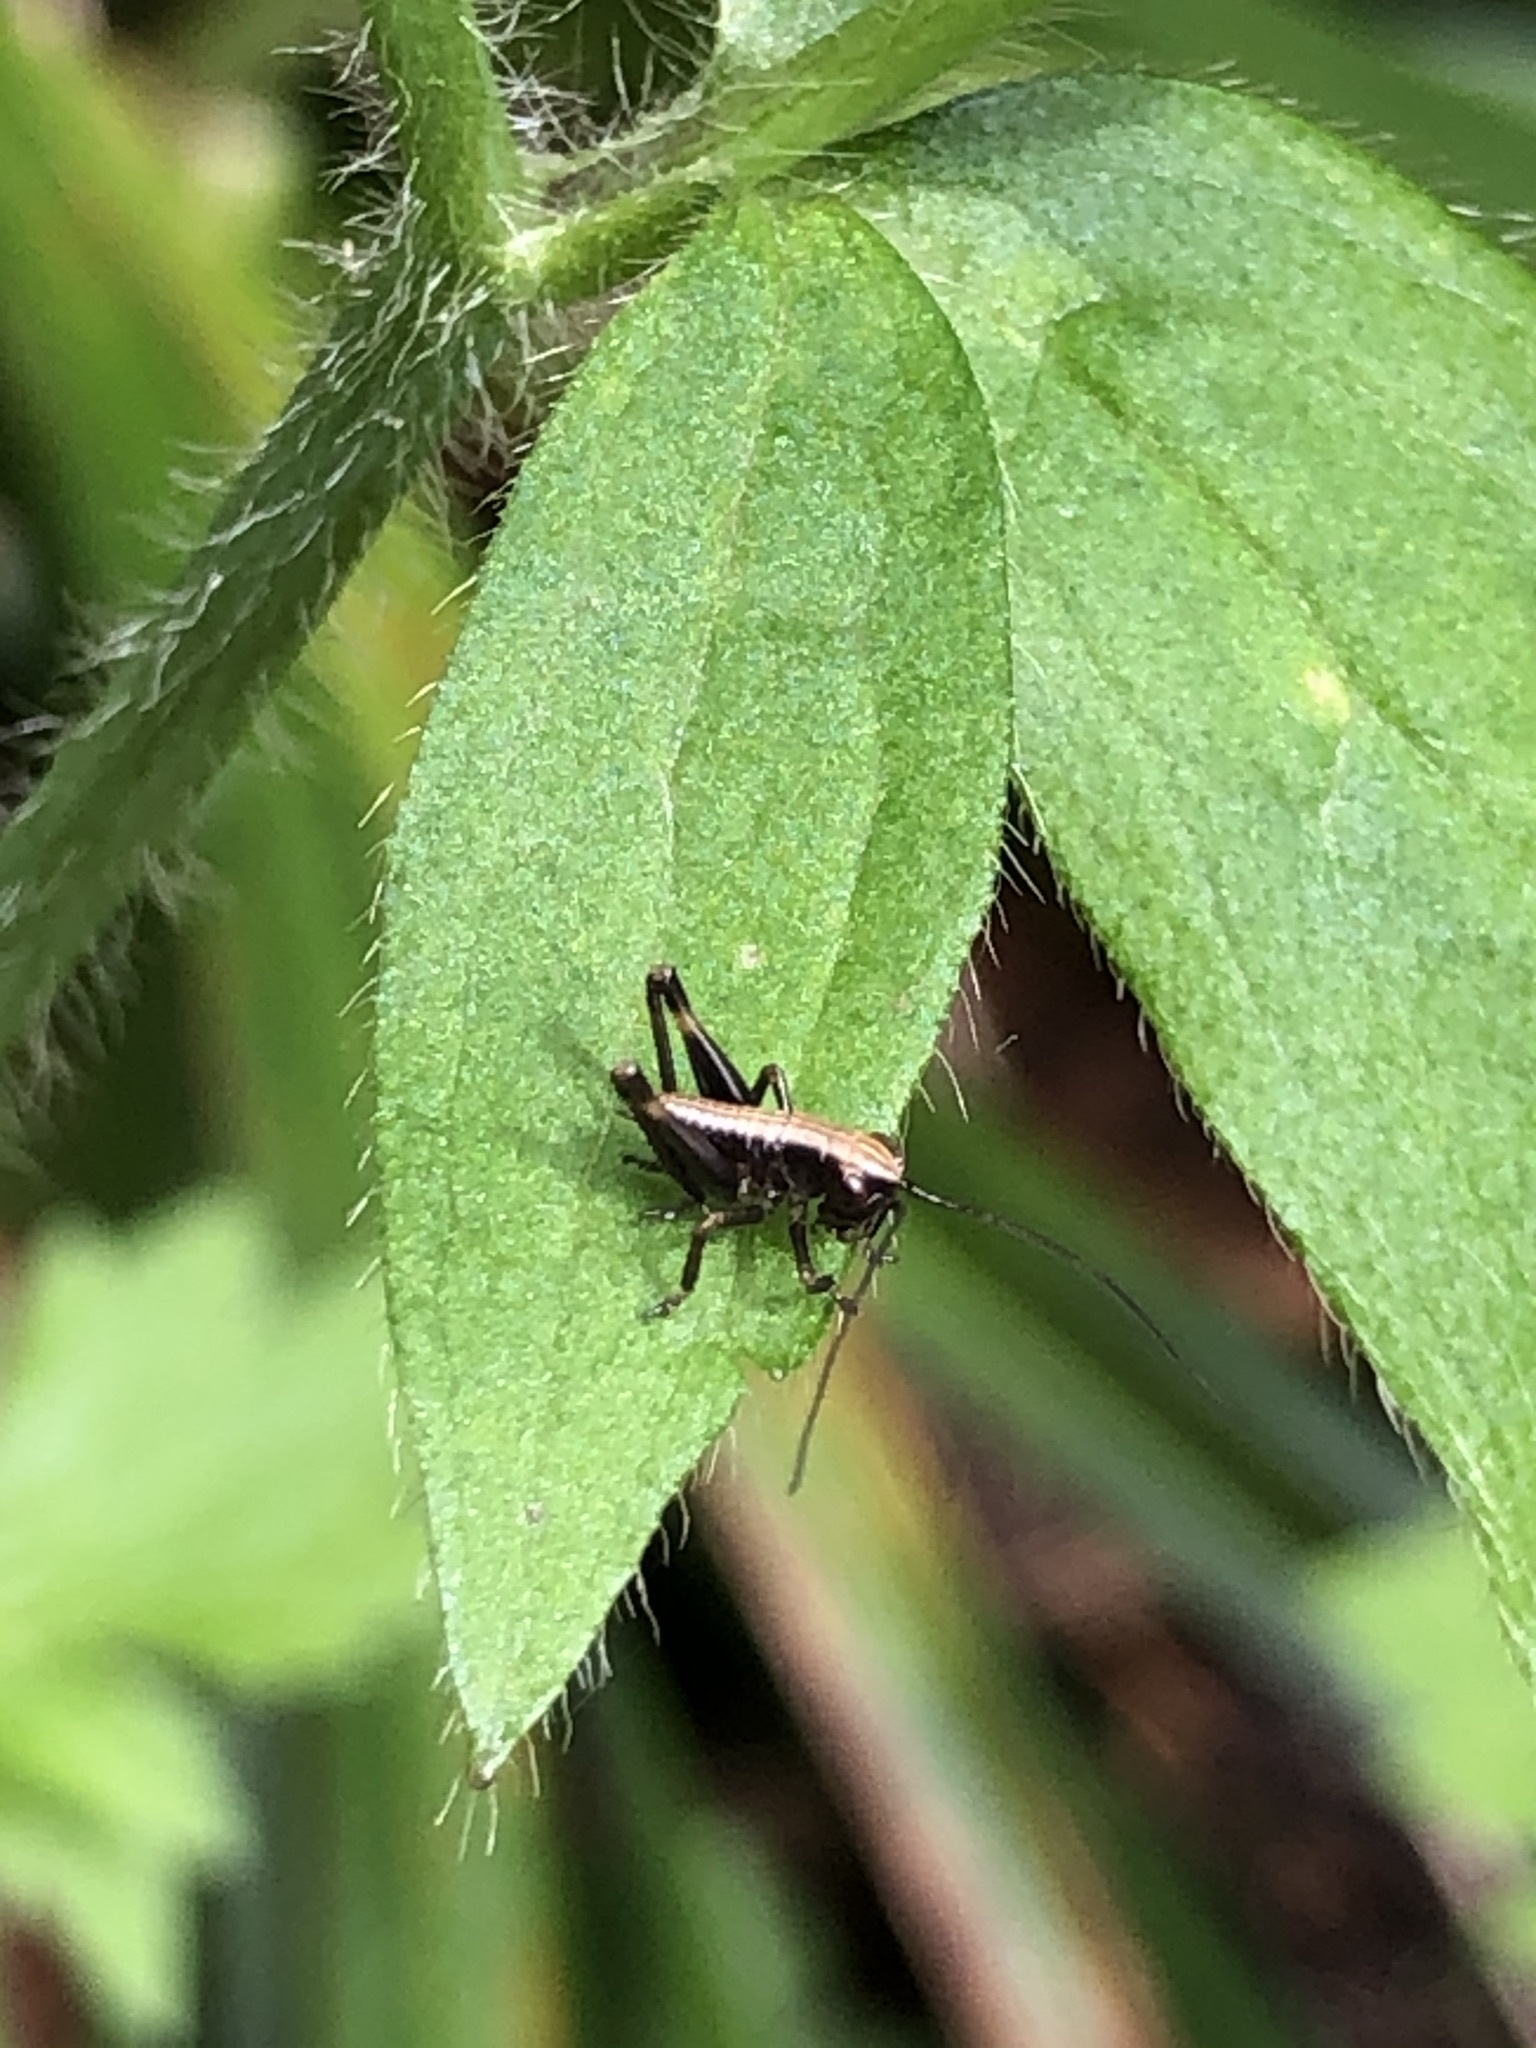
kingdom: Animalia
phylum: Arthropoda
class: Insecta
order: Orthoptera
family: Tettigoniidae
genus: Pholidoptera
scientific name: Pholidoptera griseoaptera
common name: Dark bush-cricket
